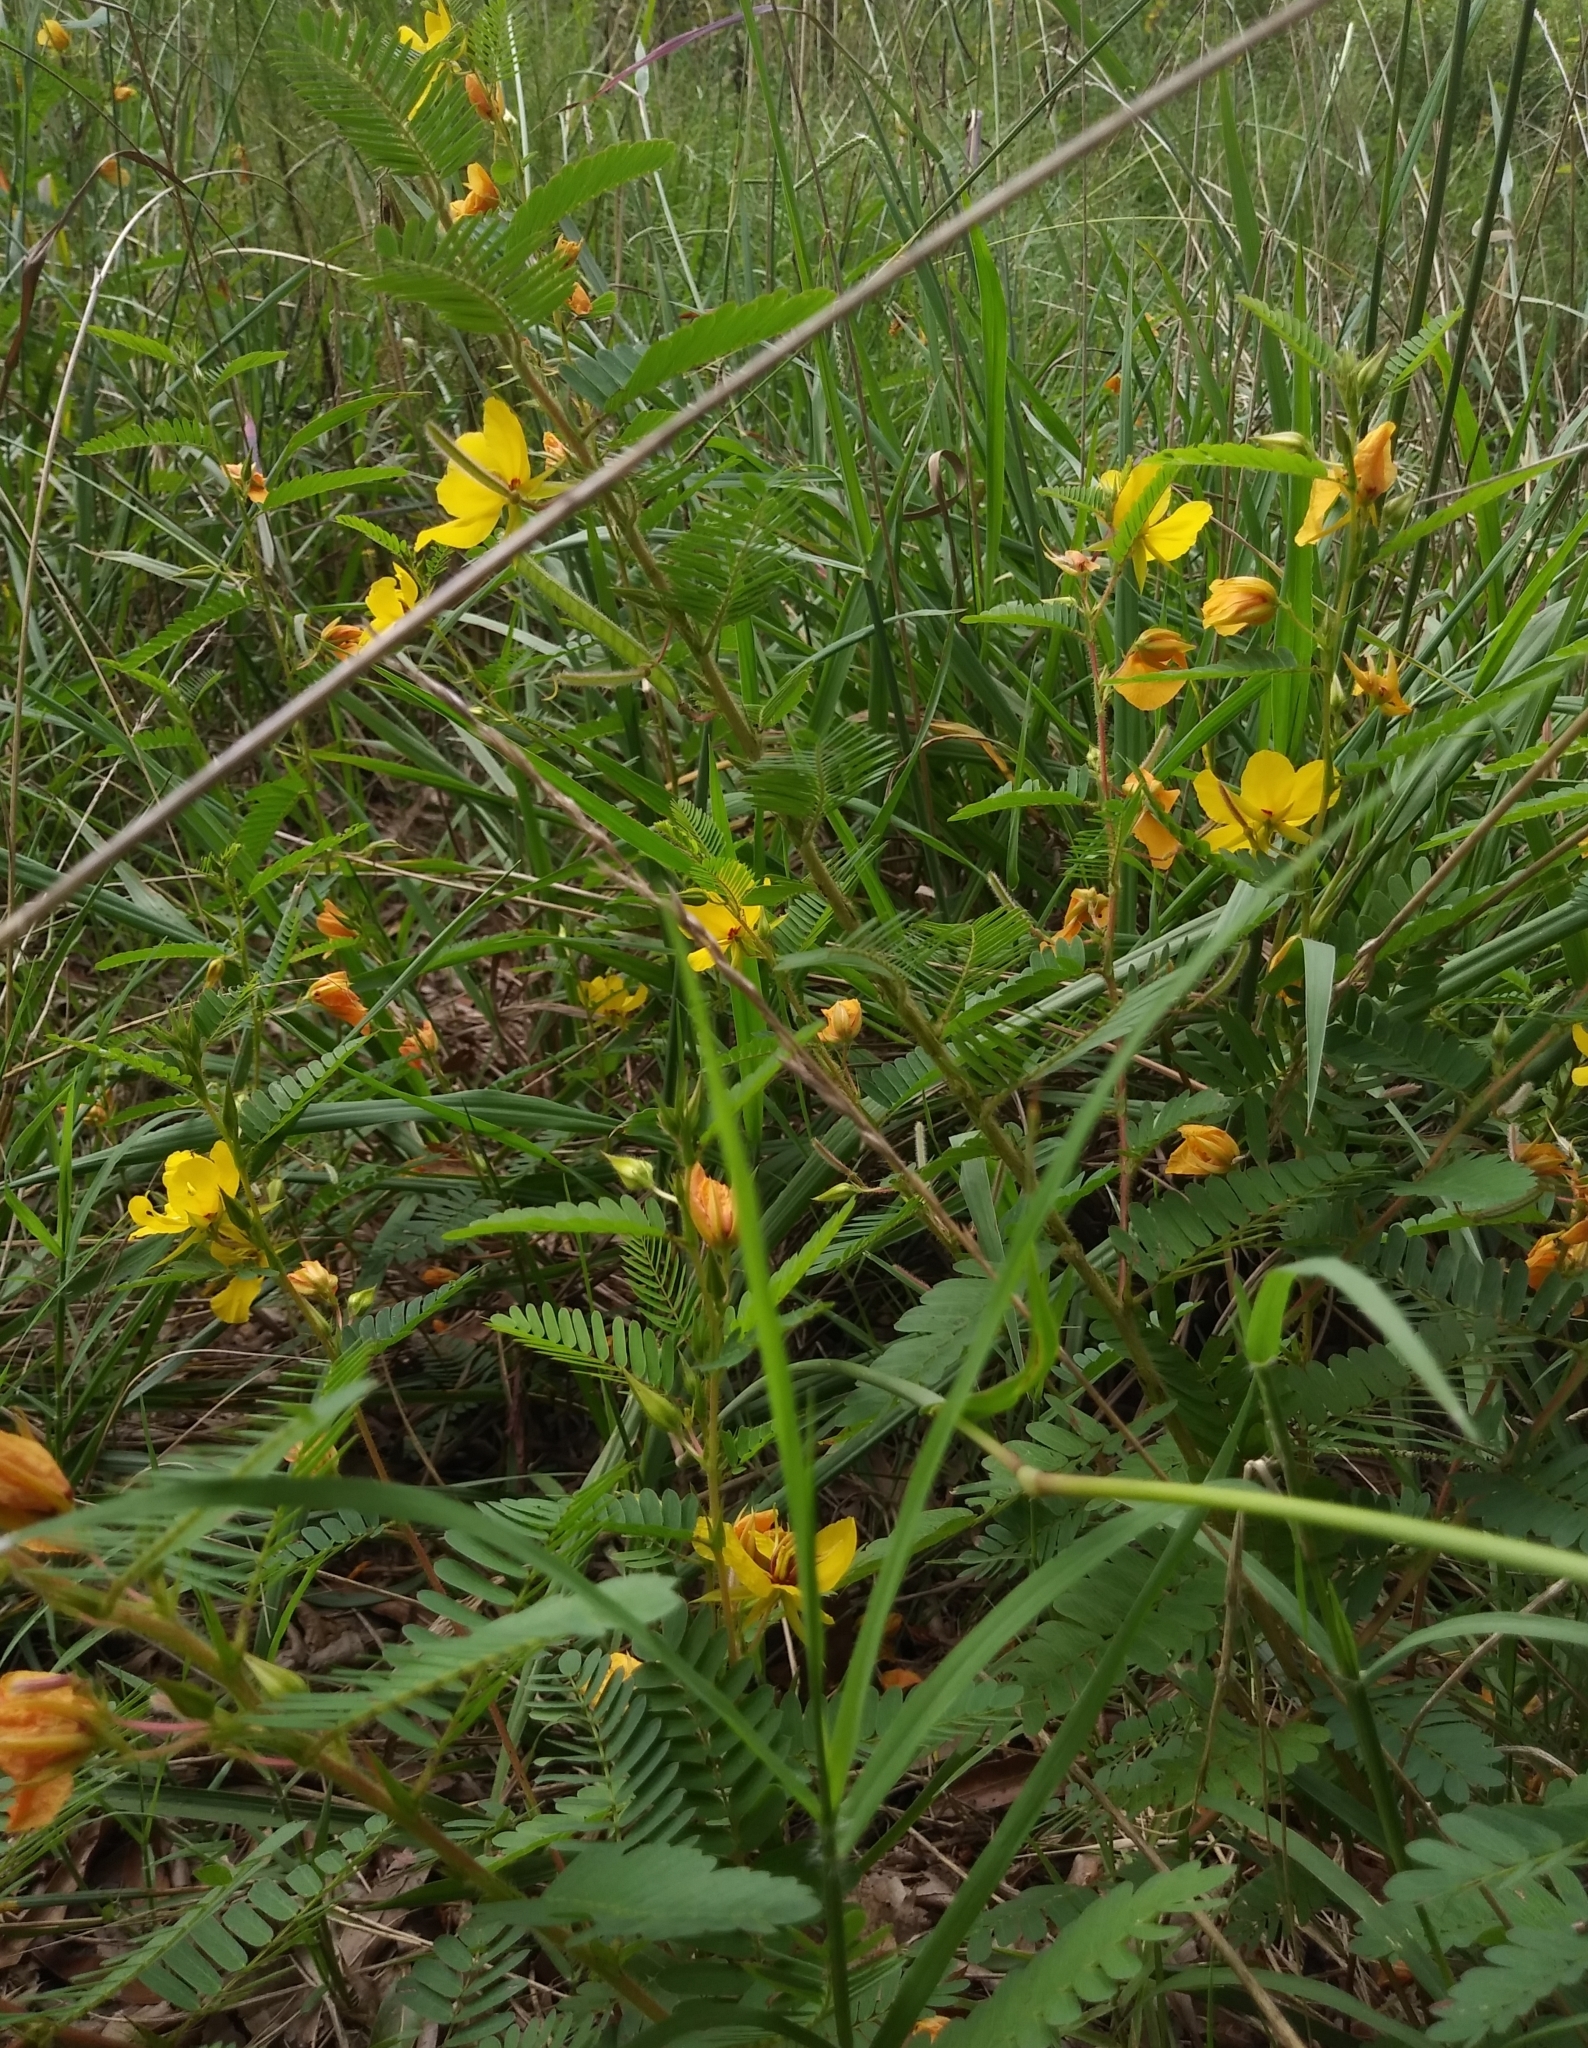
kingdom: Plantae
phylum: Tracheophyta
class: Magnoliopsida
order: Fabales
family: Fabaceae
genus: Chamaecrista
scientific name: Chamaecrista fasciculata
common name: Golden cassia
